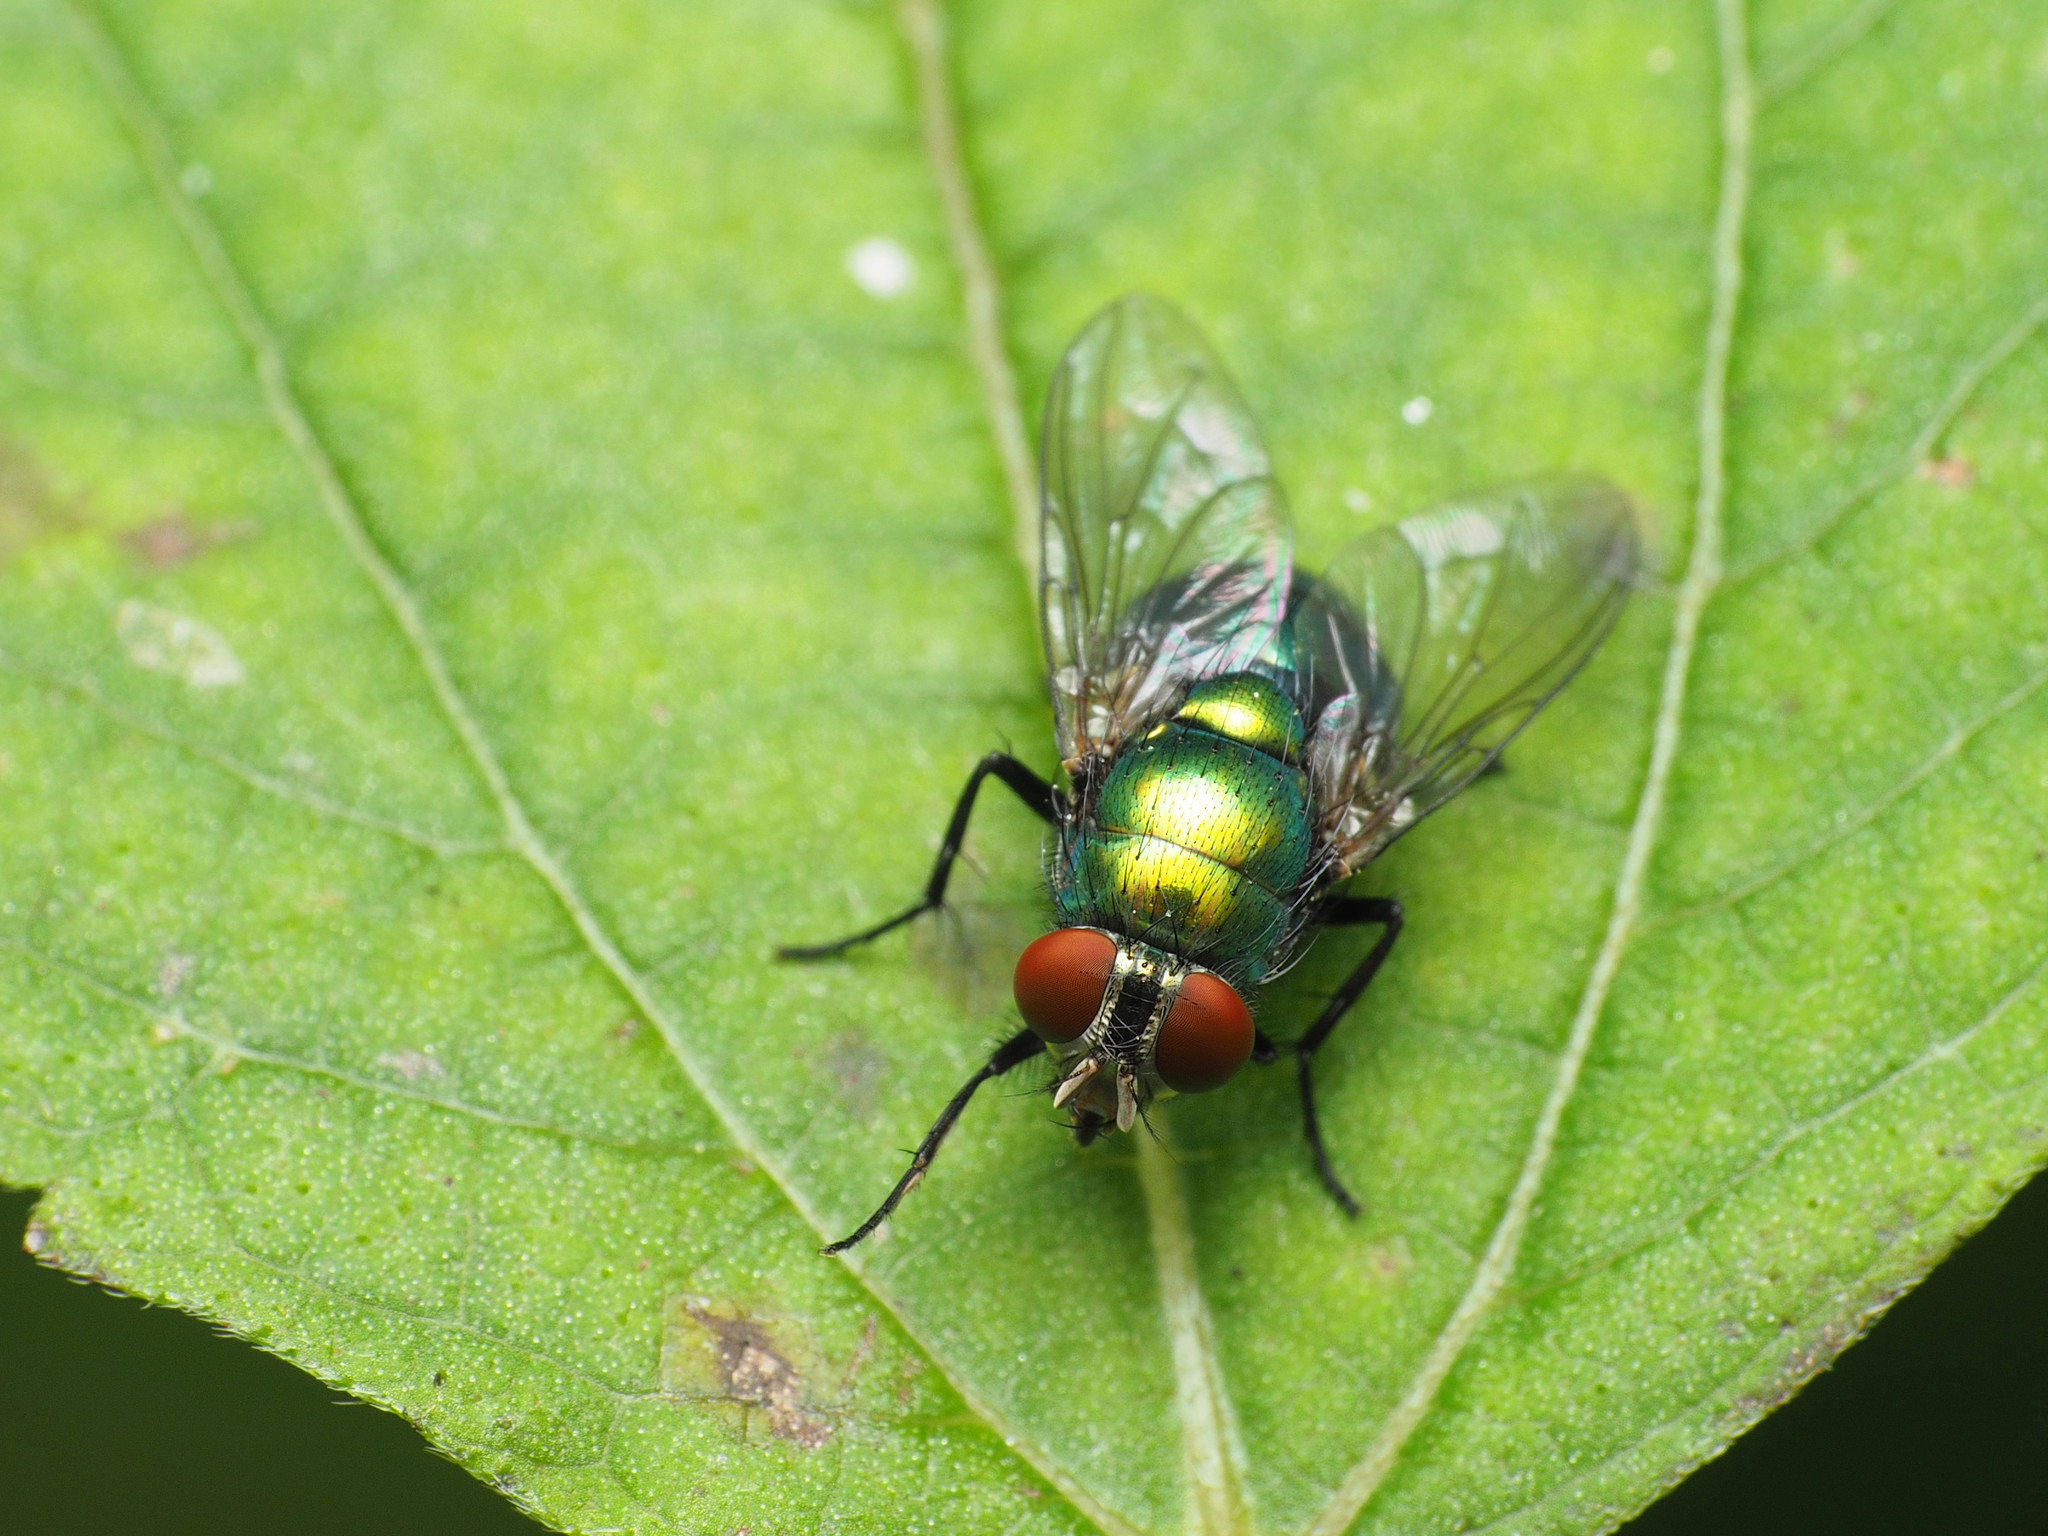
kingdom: Animalia
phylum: Arthropoda
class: Insecta
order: Diptera
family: Calliphoridae
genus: Lucilia
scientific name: Lucilia caeruleiviridis
